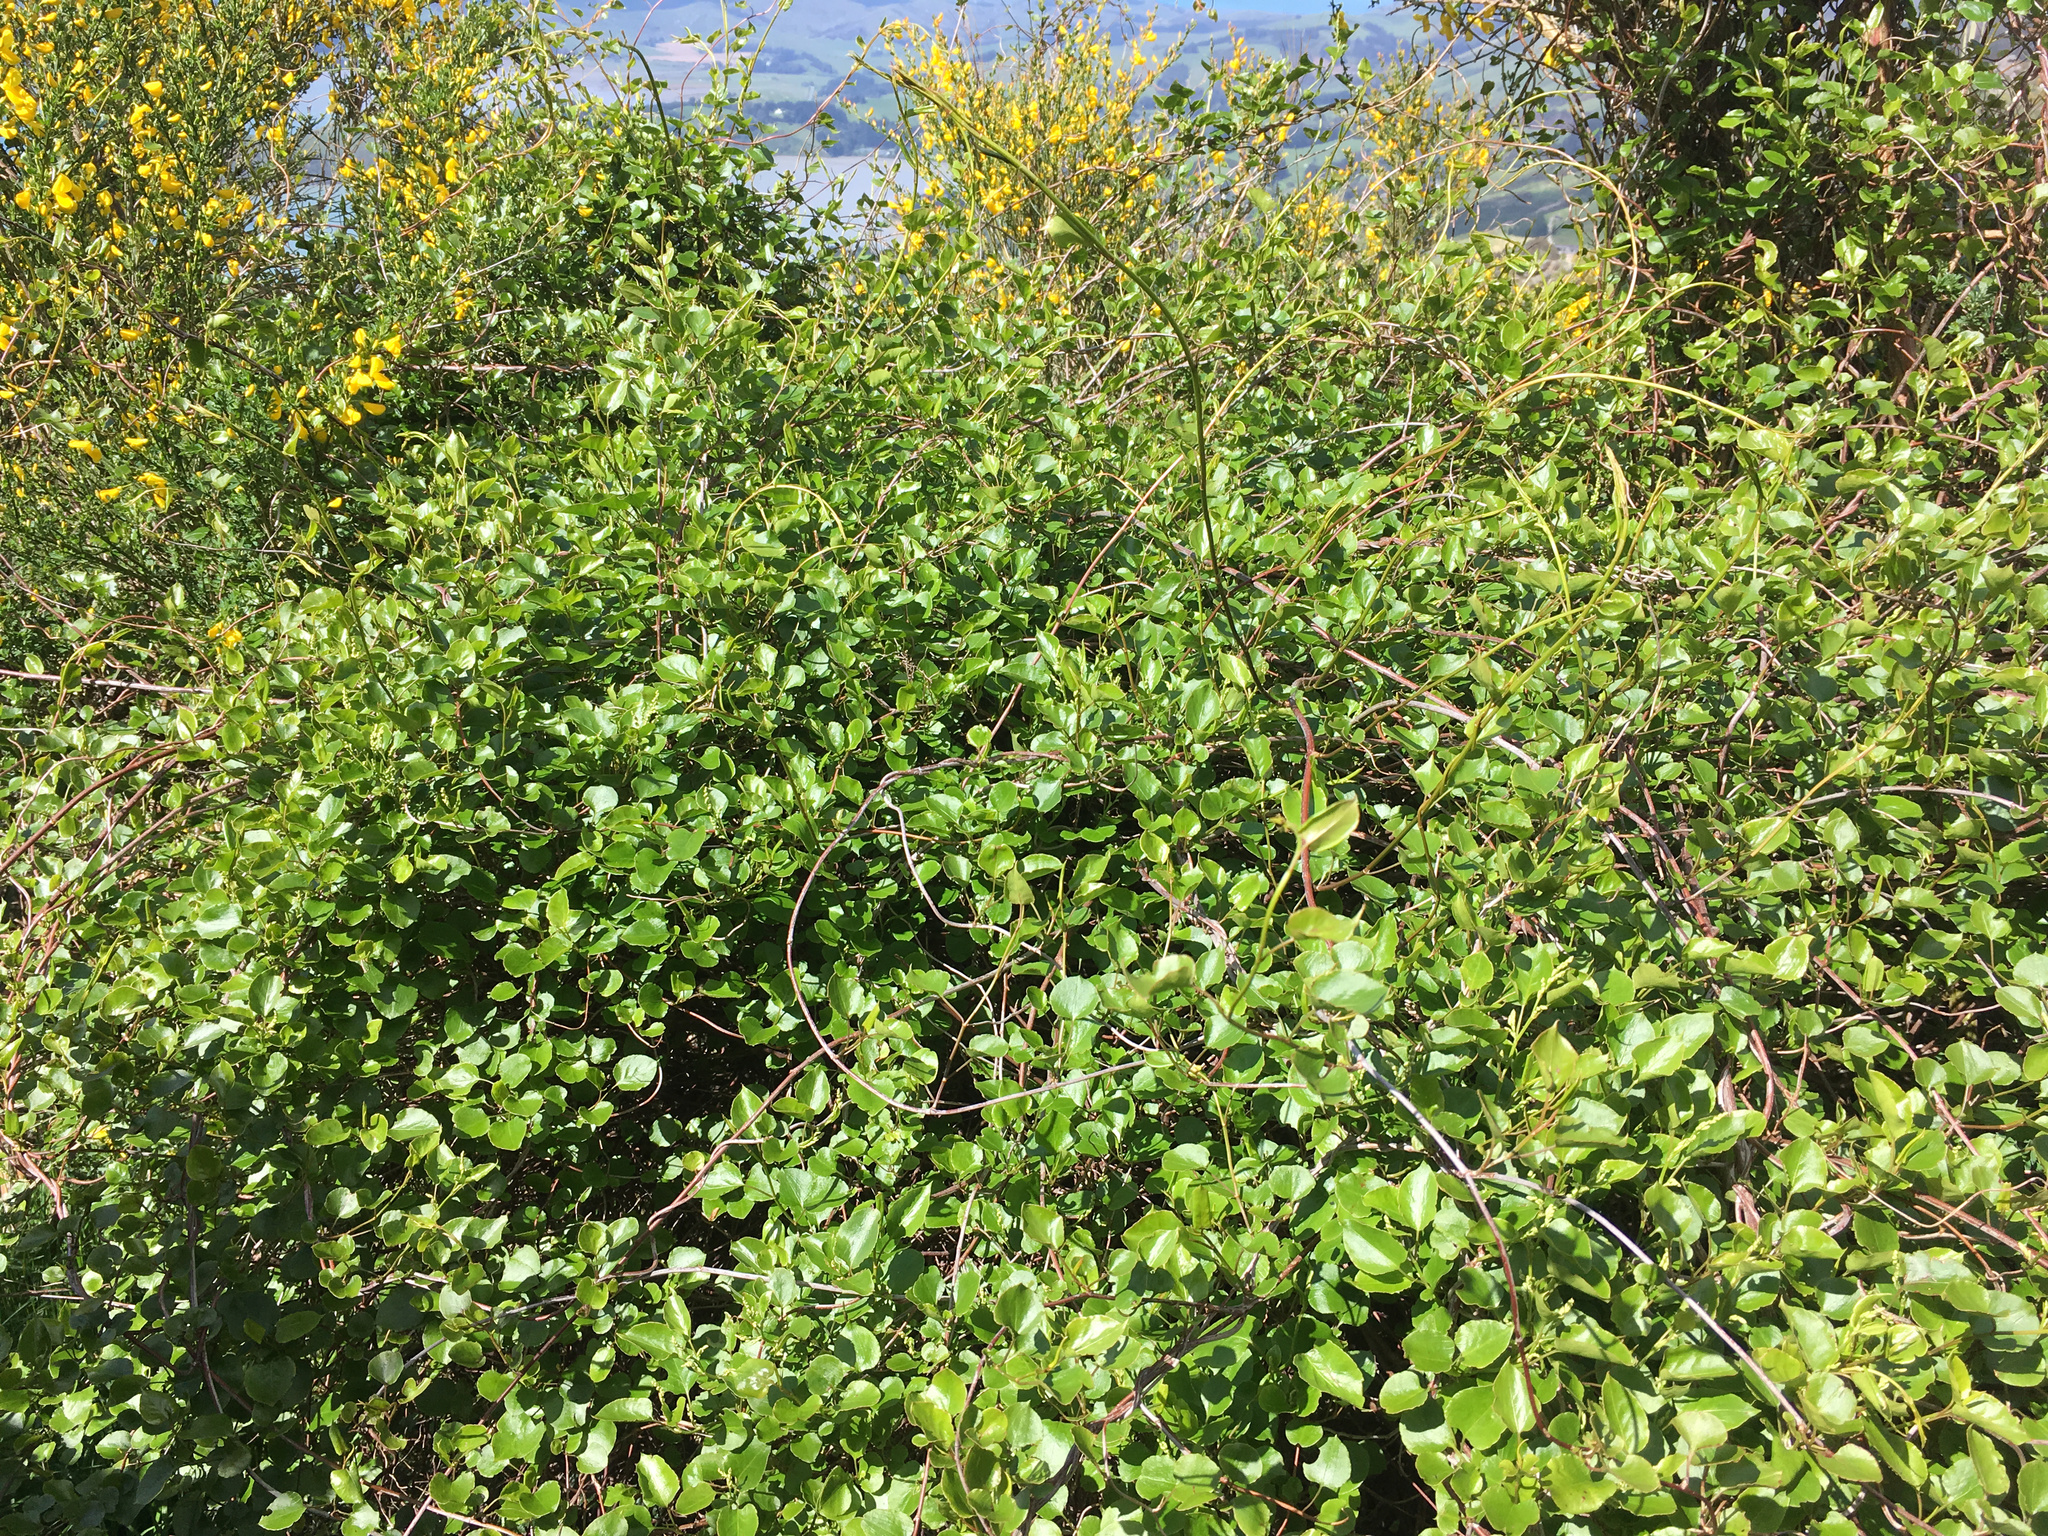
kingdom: Plantae
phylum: Tracheophyta
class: Magnoliopsida
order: Caryophyllales
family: Polygonaceae
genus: Muehlenbeckia
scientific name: Muehlenbeckia australis
